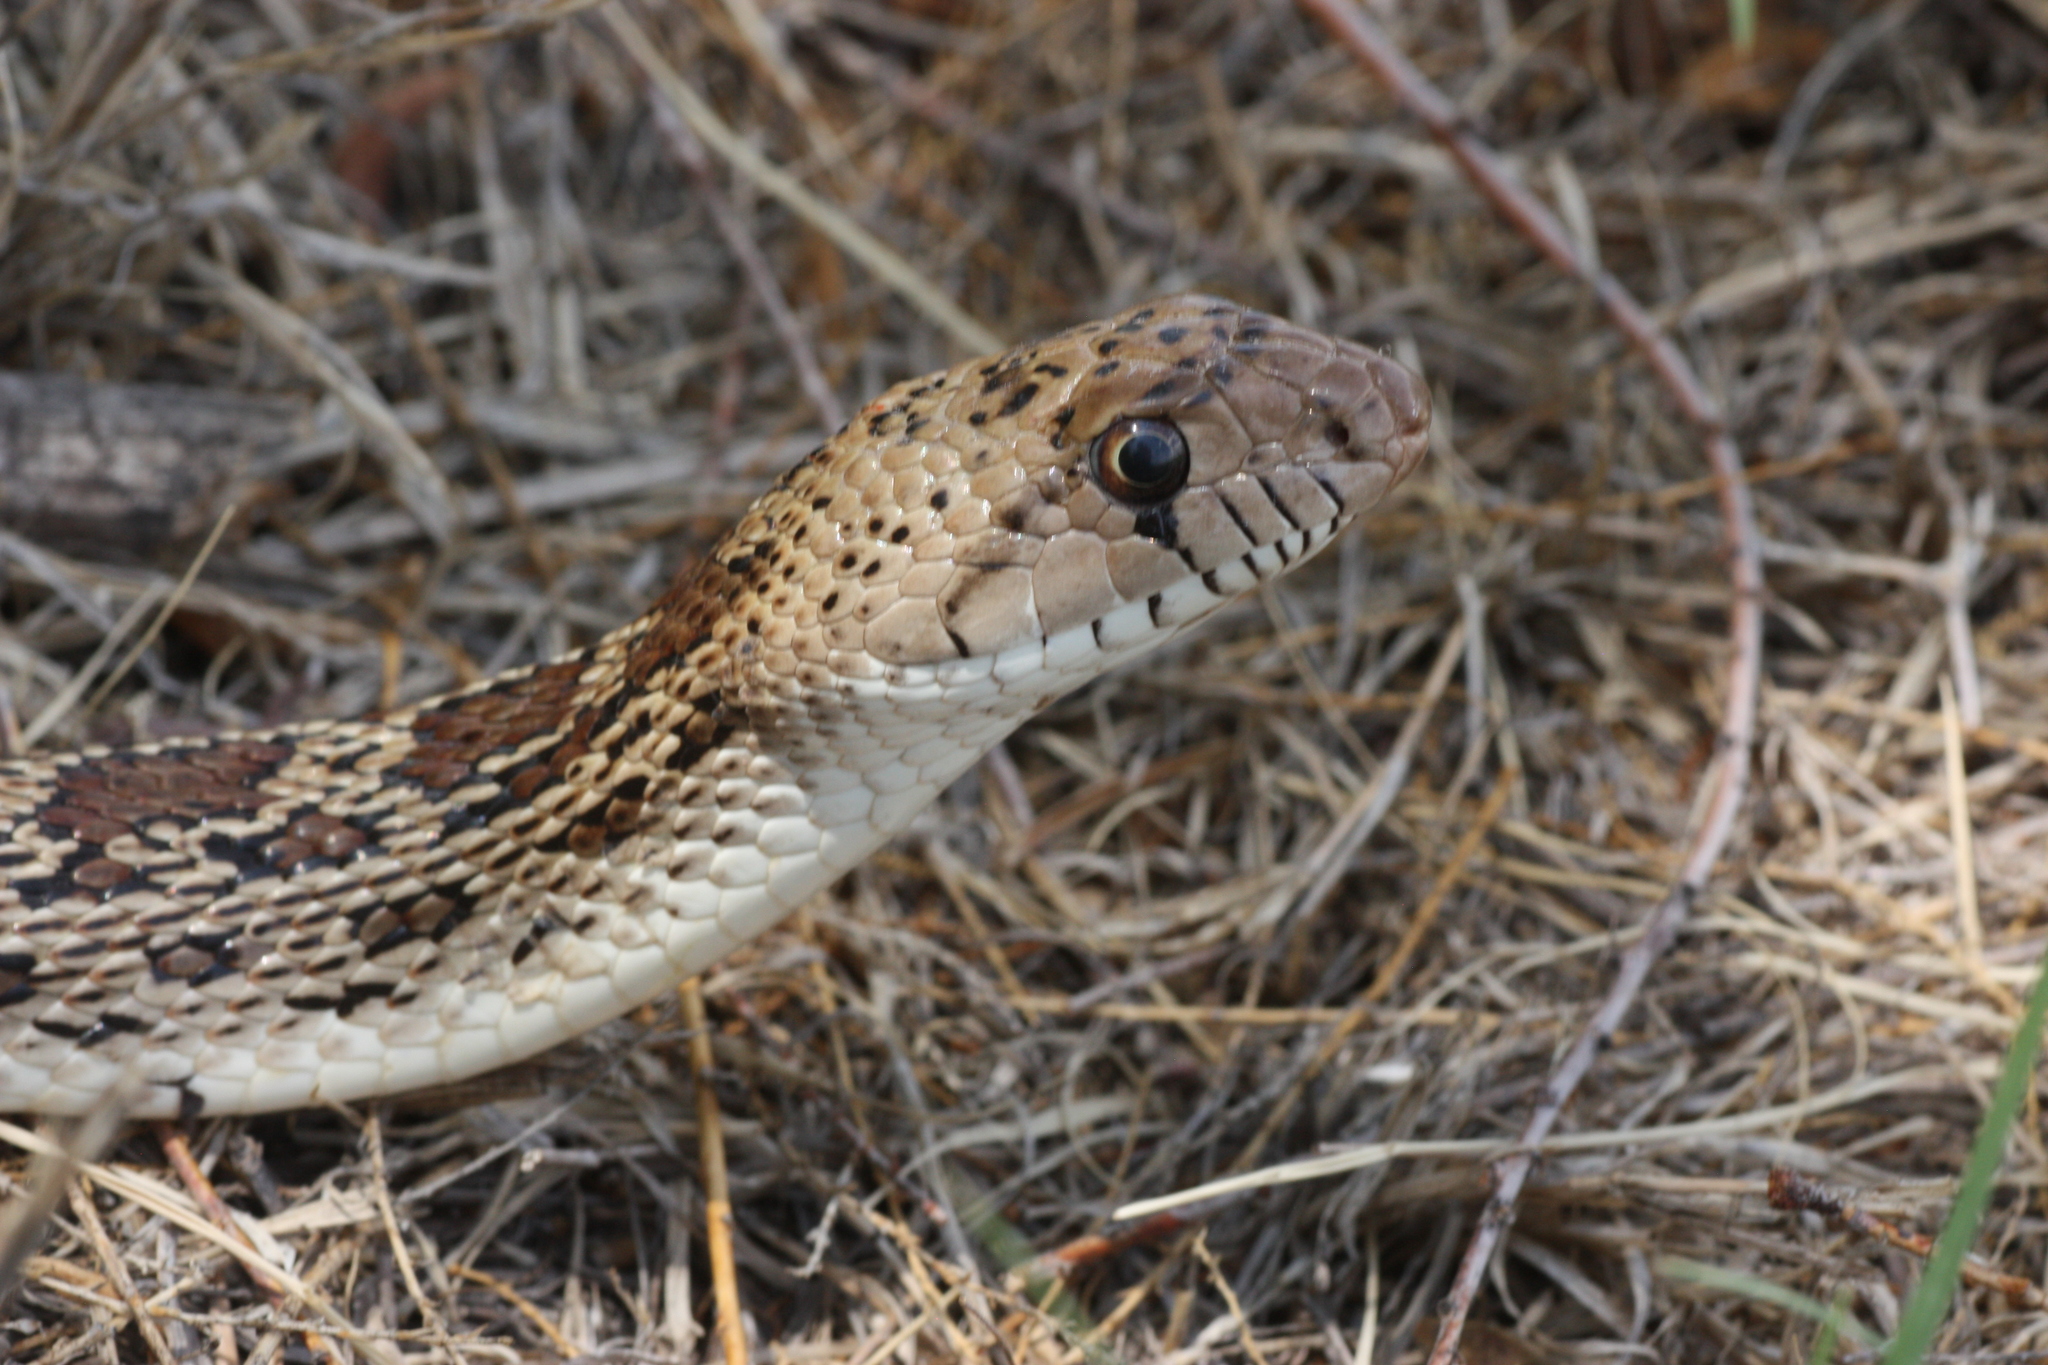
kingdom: Animalia
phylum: Chordata
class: Squamata
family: Colubridae
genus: Pituophis
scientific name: Pituophis catenifer
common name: Gopher snake
